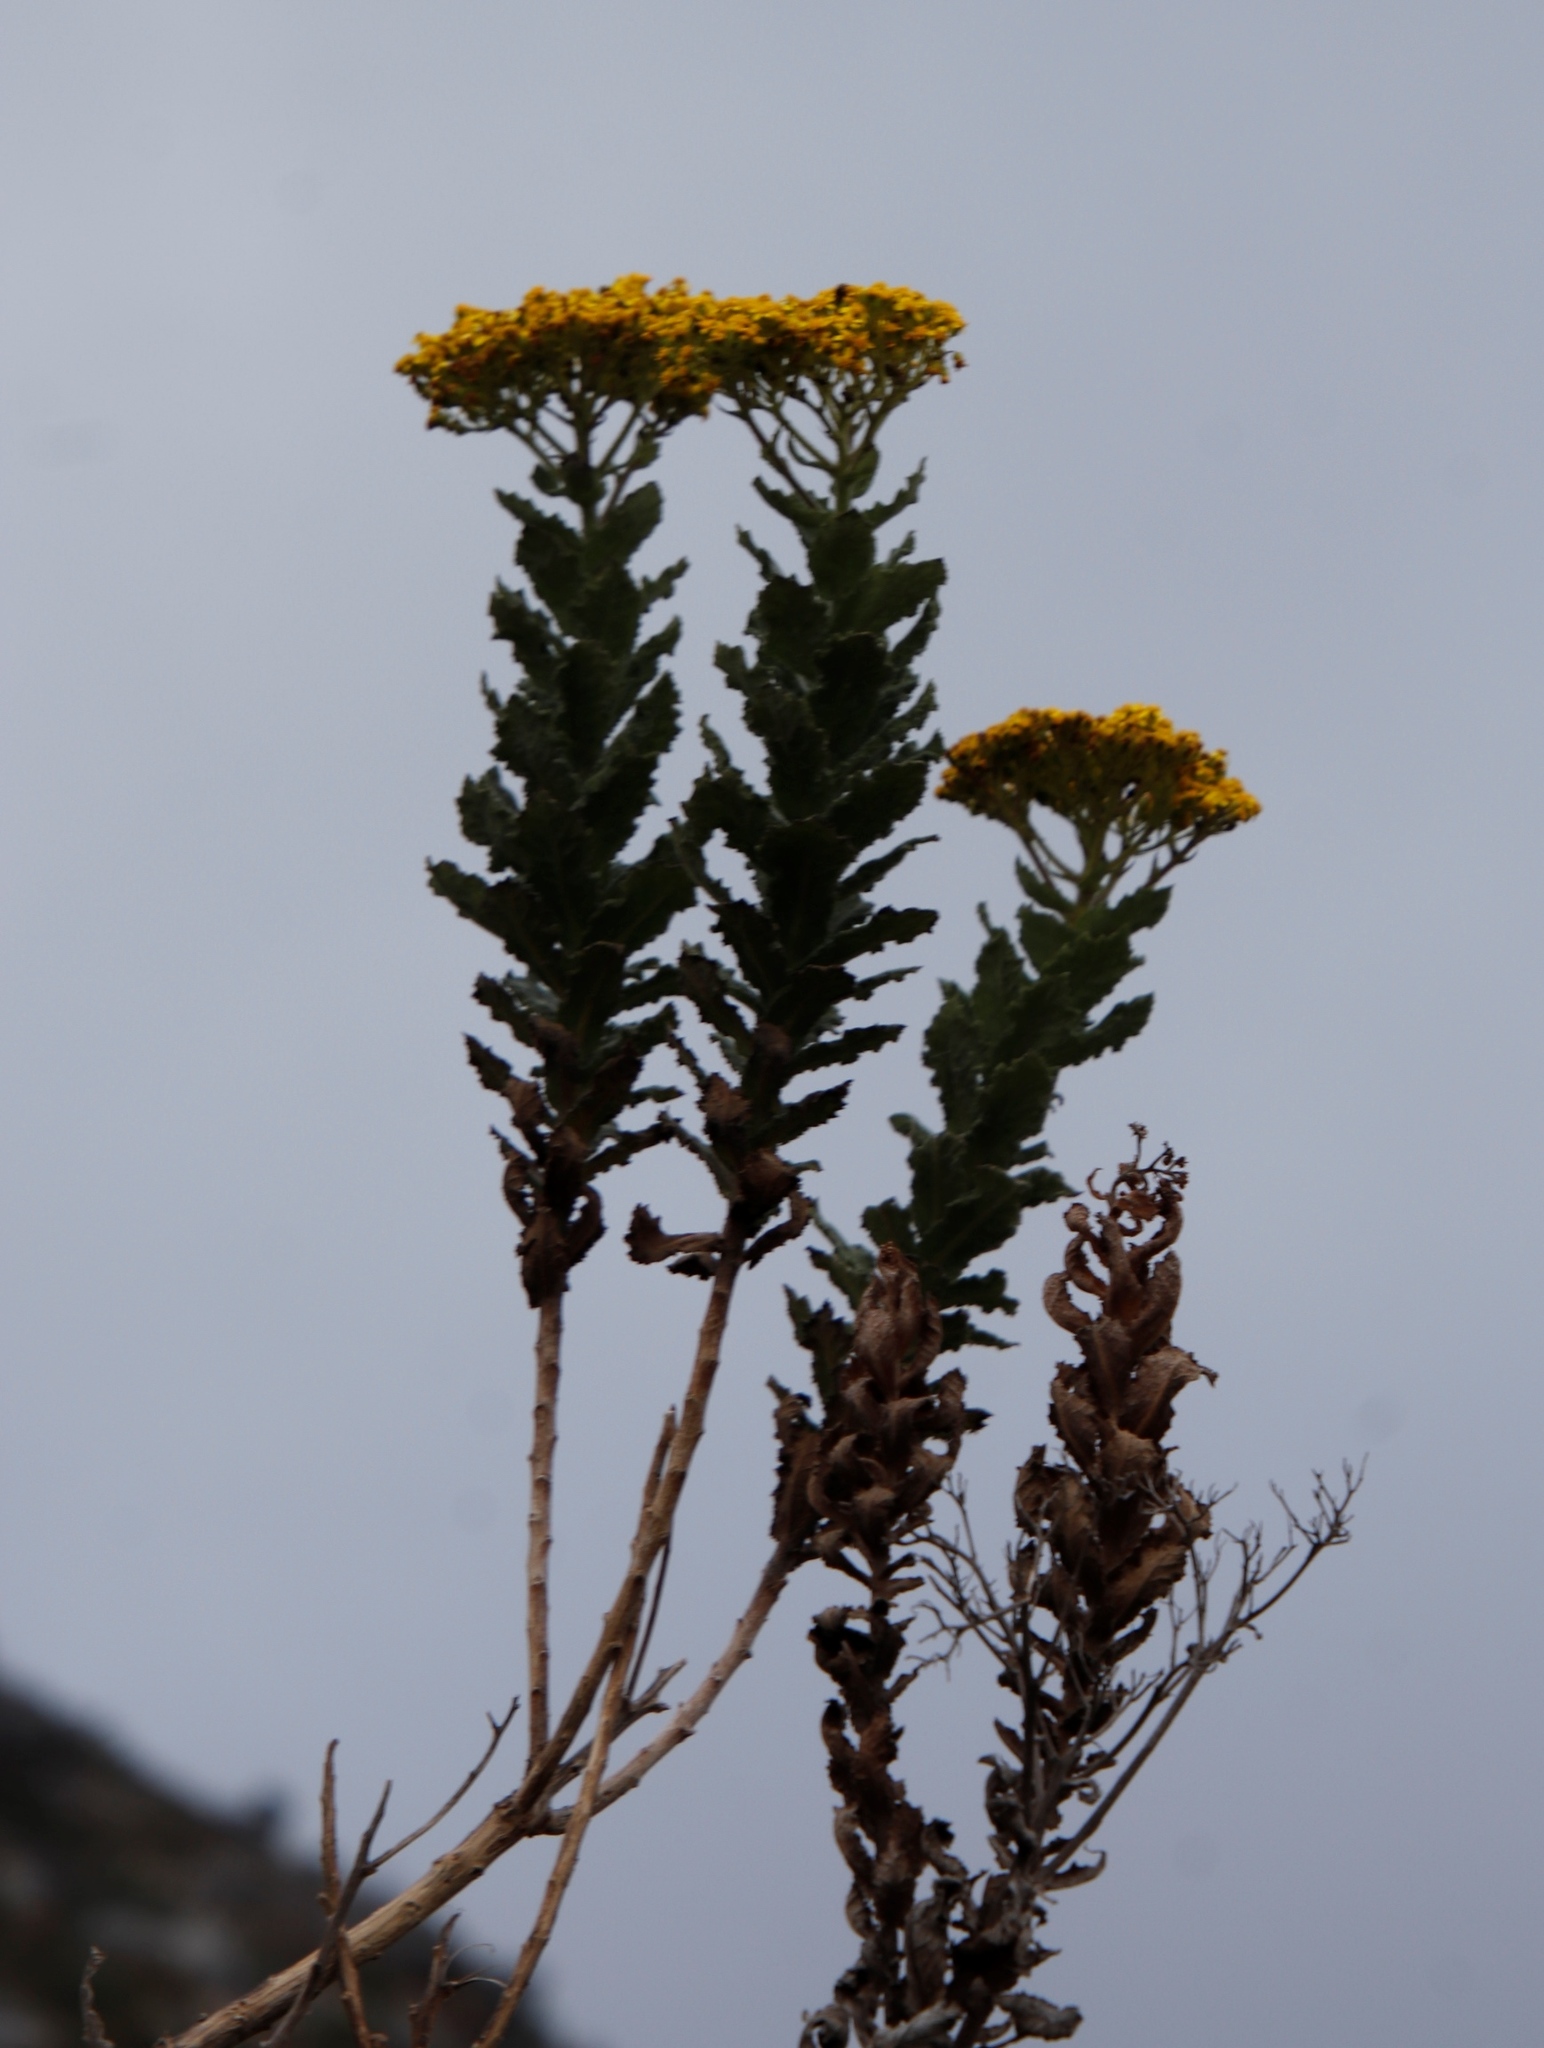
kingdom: Plantae
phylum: Tracheophyta
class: Magnoliopsida
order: Asterales
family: Asteraceae
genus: Senecio
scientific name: Senecio rigidus
